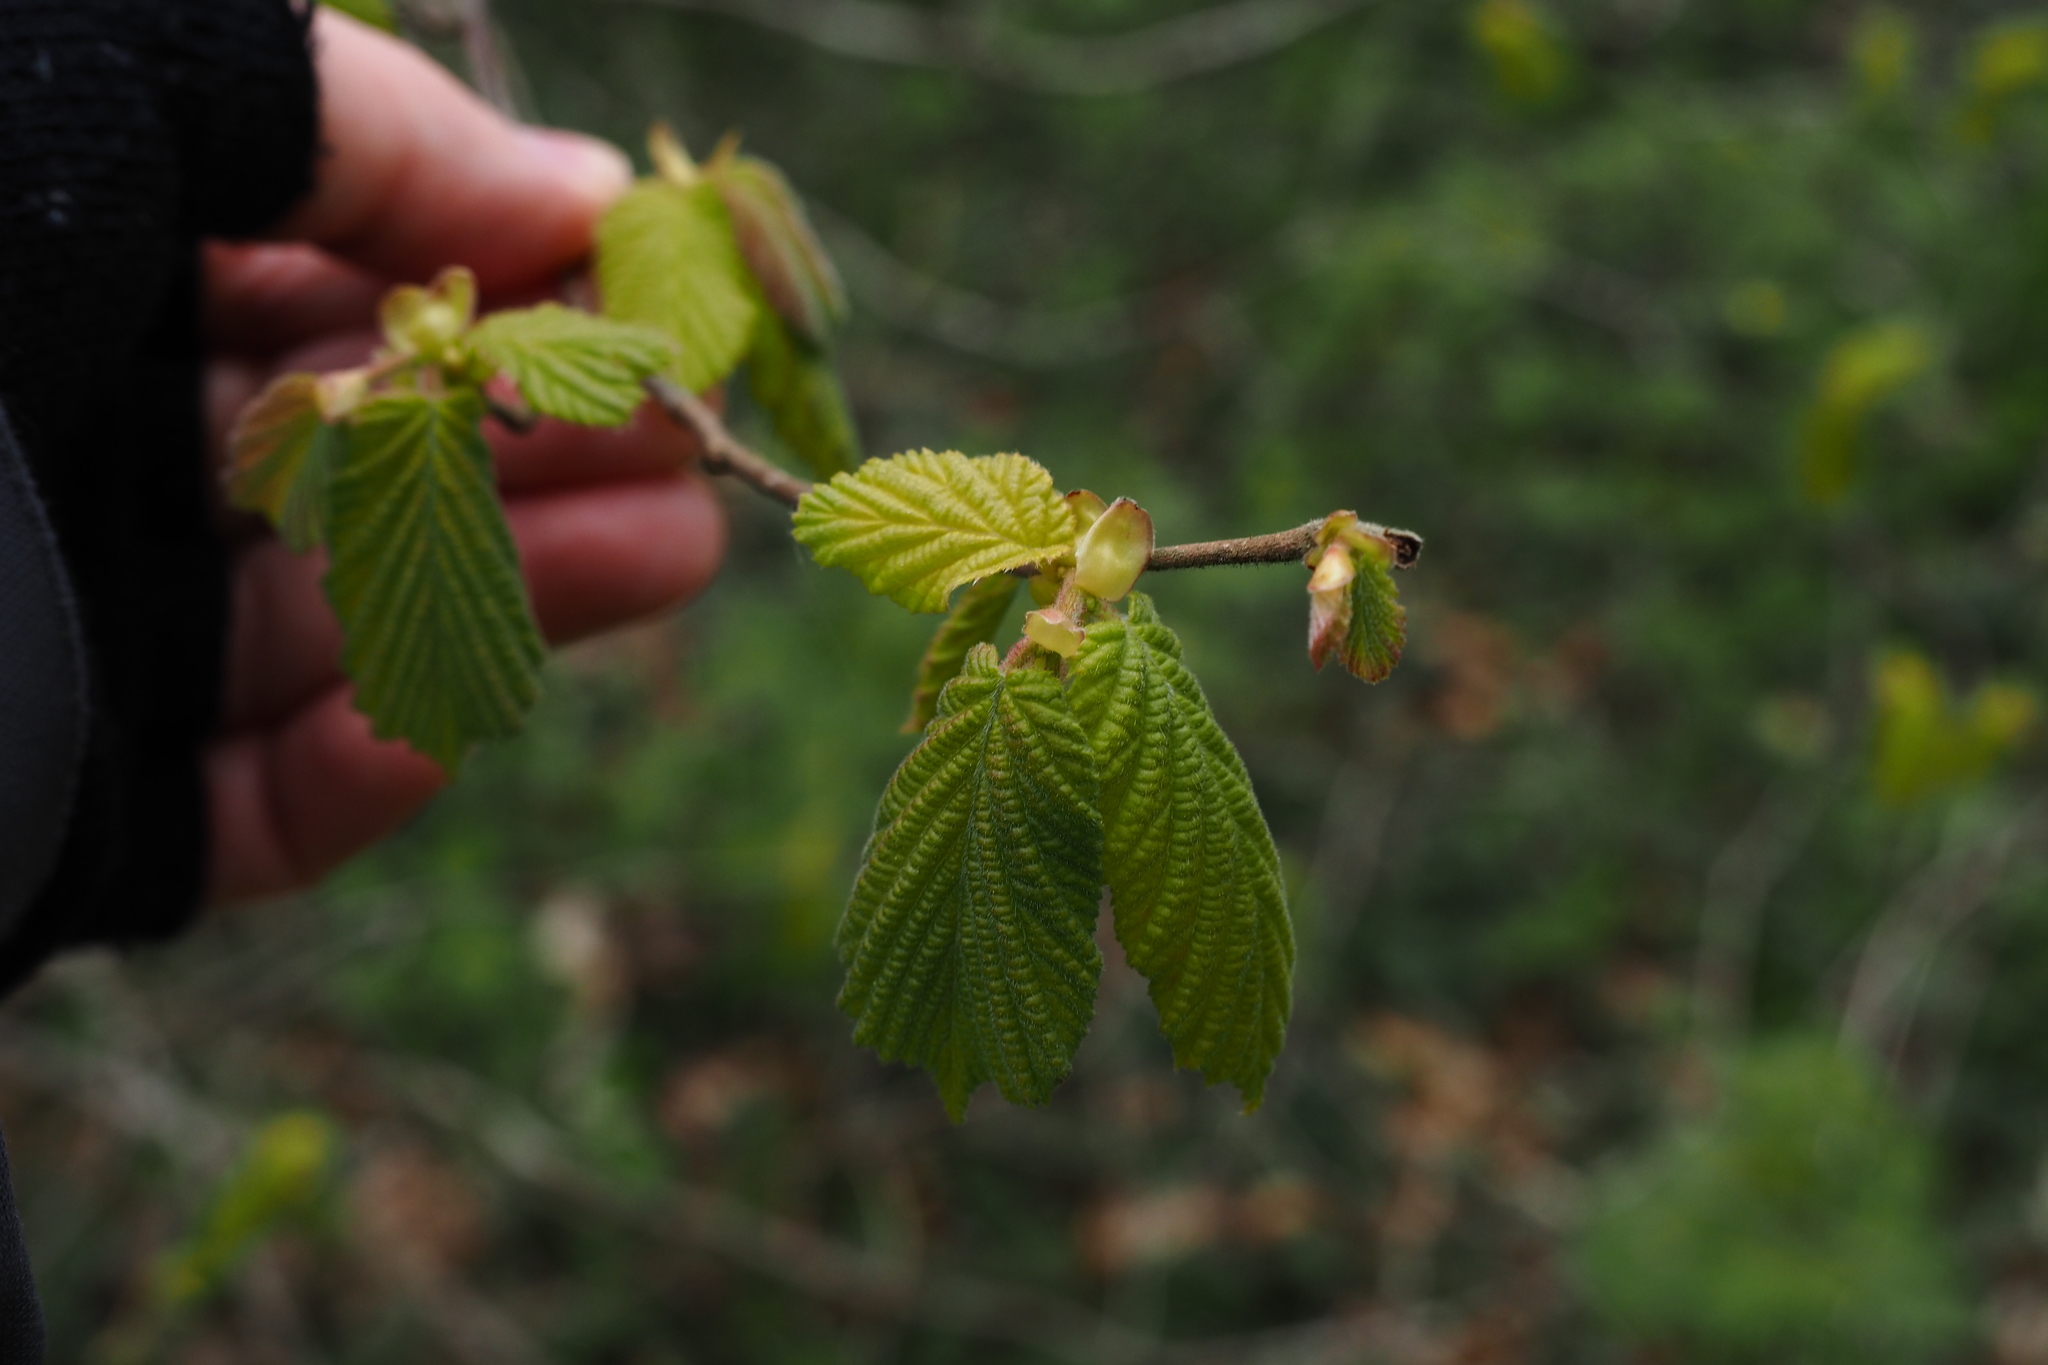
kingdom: Plantae
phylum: Tracheophyta
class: Magnoliopsida
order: Fagales
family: Betulaceae
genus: Corylus
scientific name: Corylus avellana
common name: European hazel
